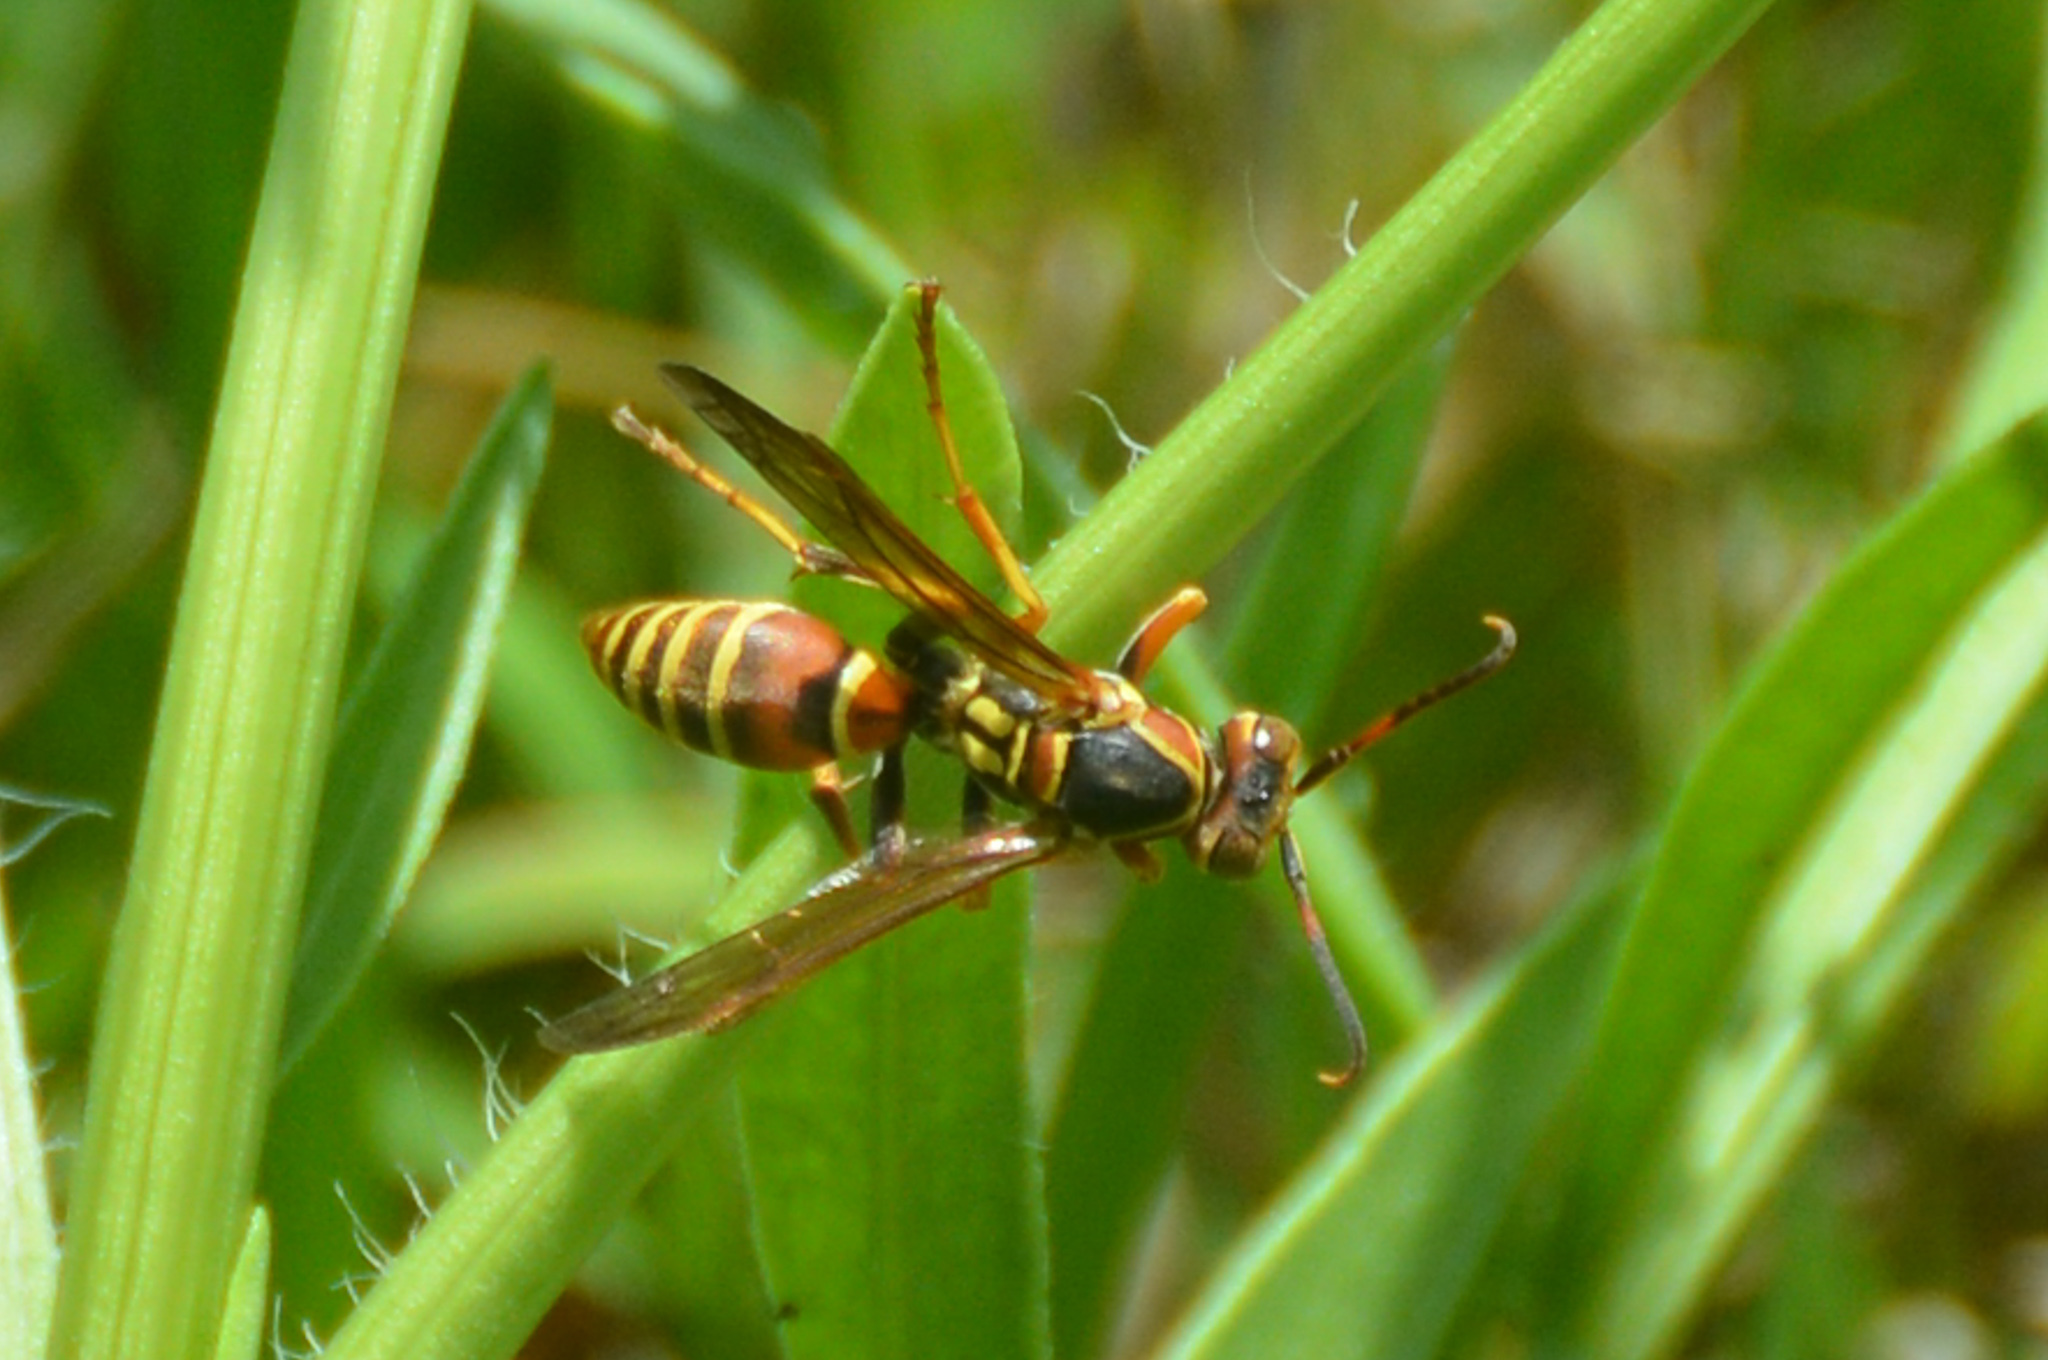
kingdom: Animalia
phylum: Arthropoda
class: Insecta
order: Hymenoptera
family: Eumenidae
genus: Polistes
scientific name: Polistes dorsalis
